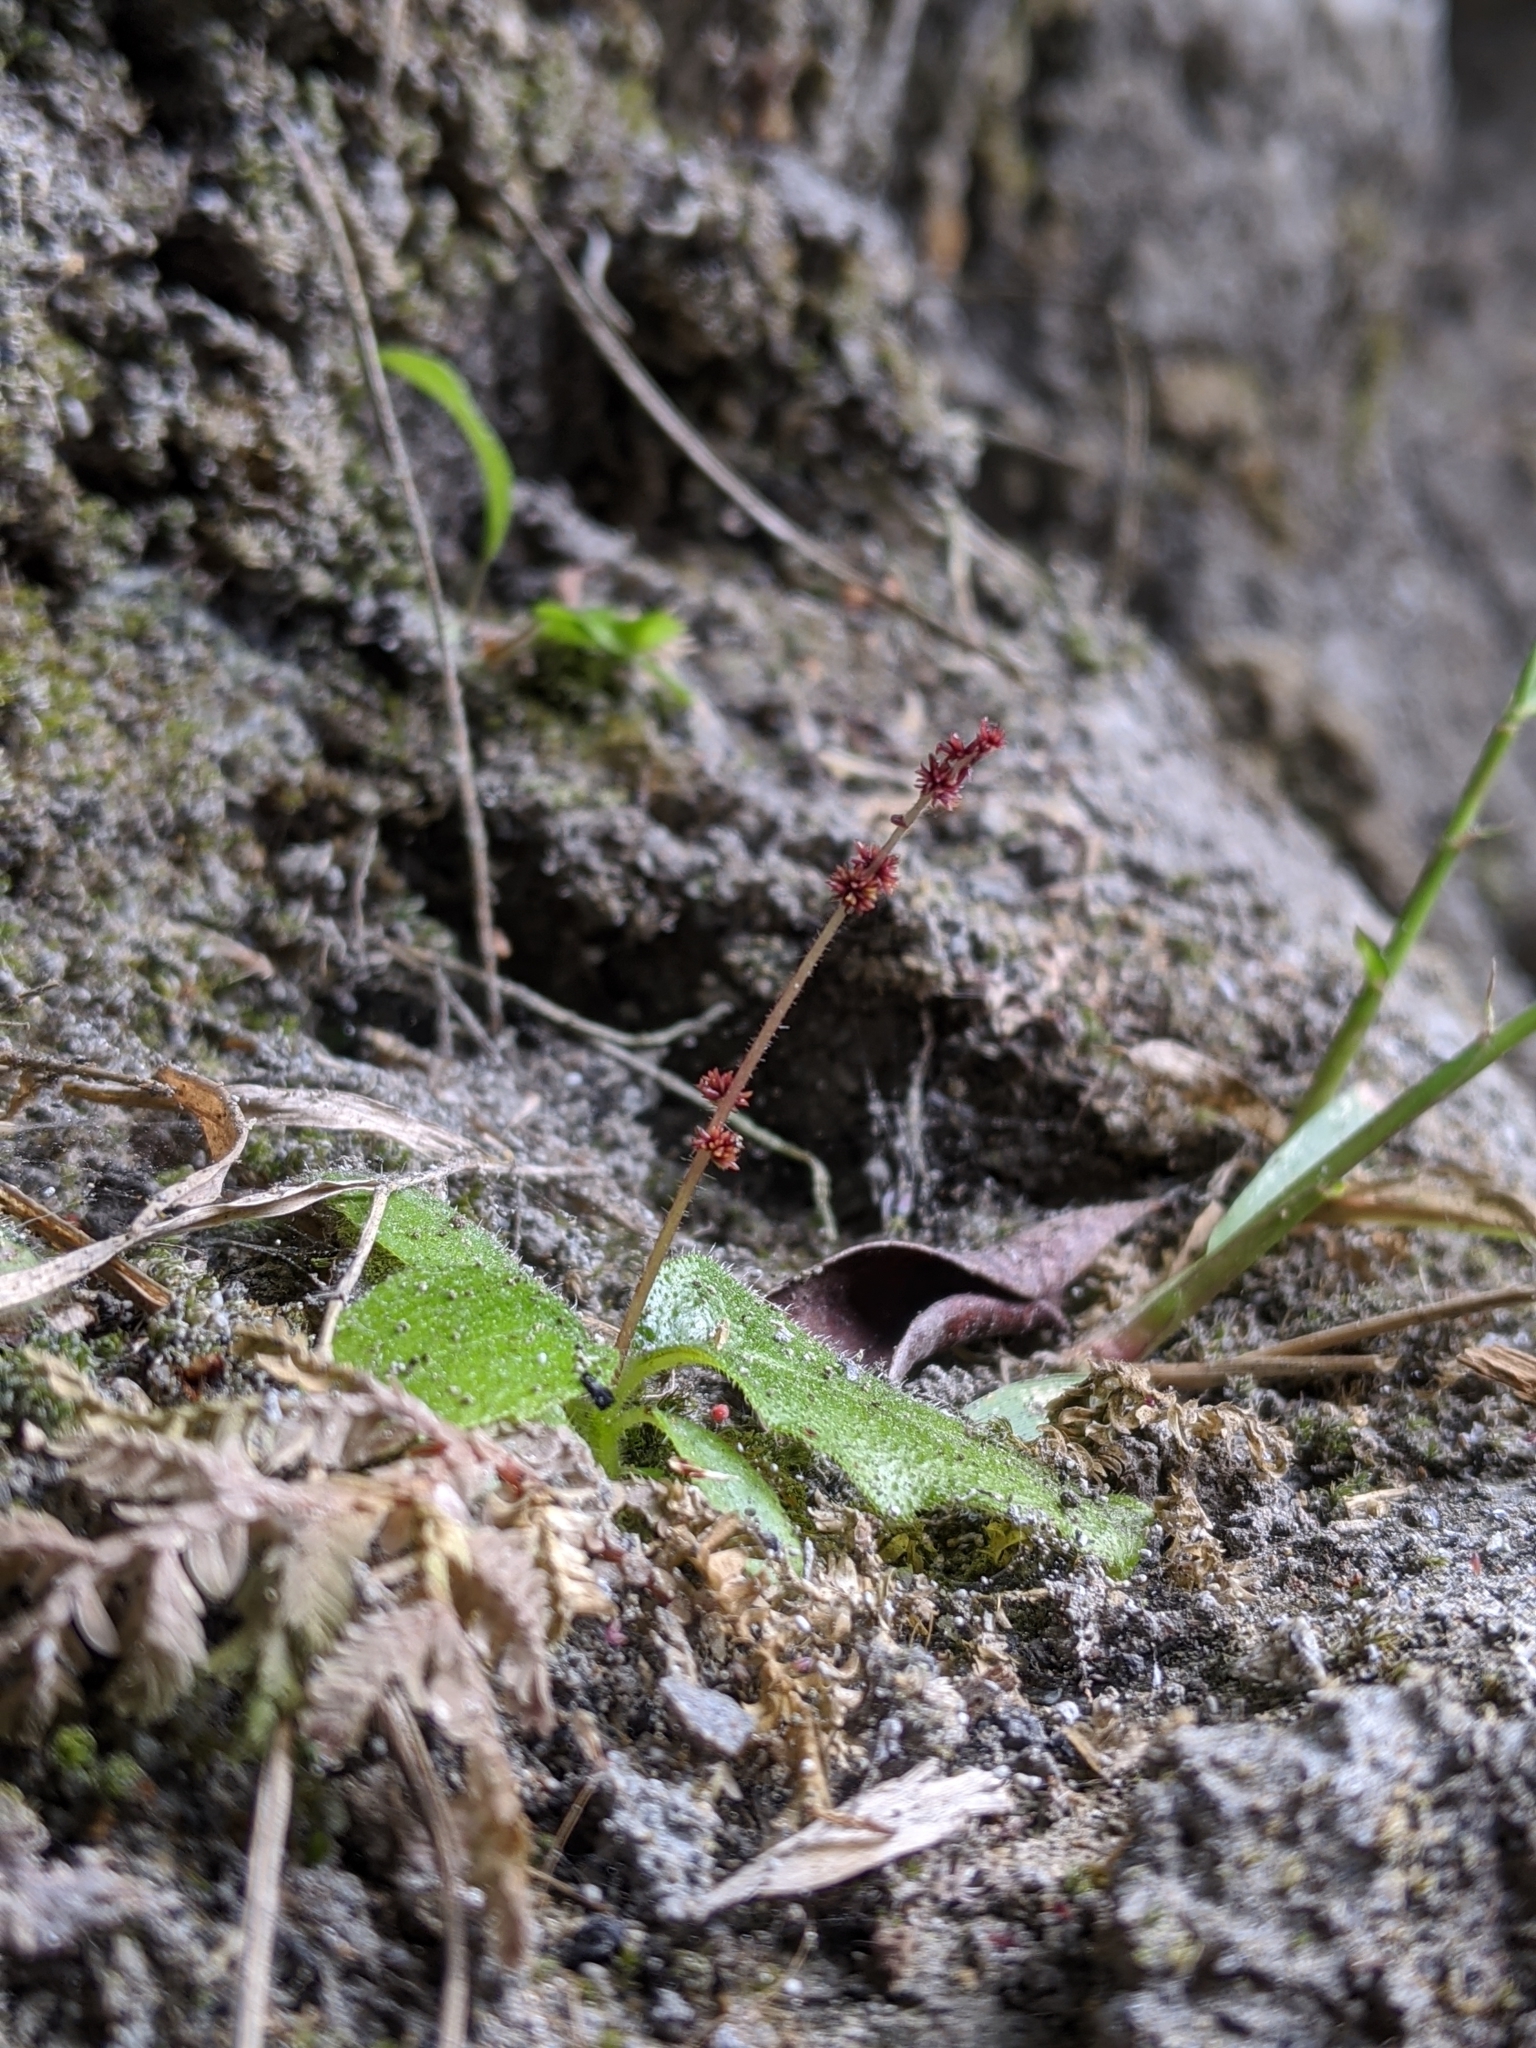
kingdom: Plantae
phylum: Tracheophyta
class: Magnoliopsida
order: Lamiales
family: Gesneriaceae
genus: Titanotrichum
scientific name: Titanotrichum oldhamii
